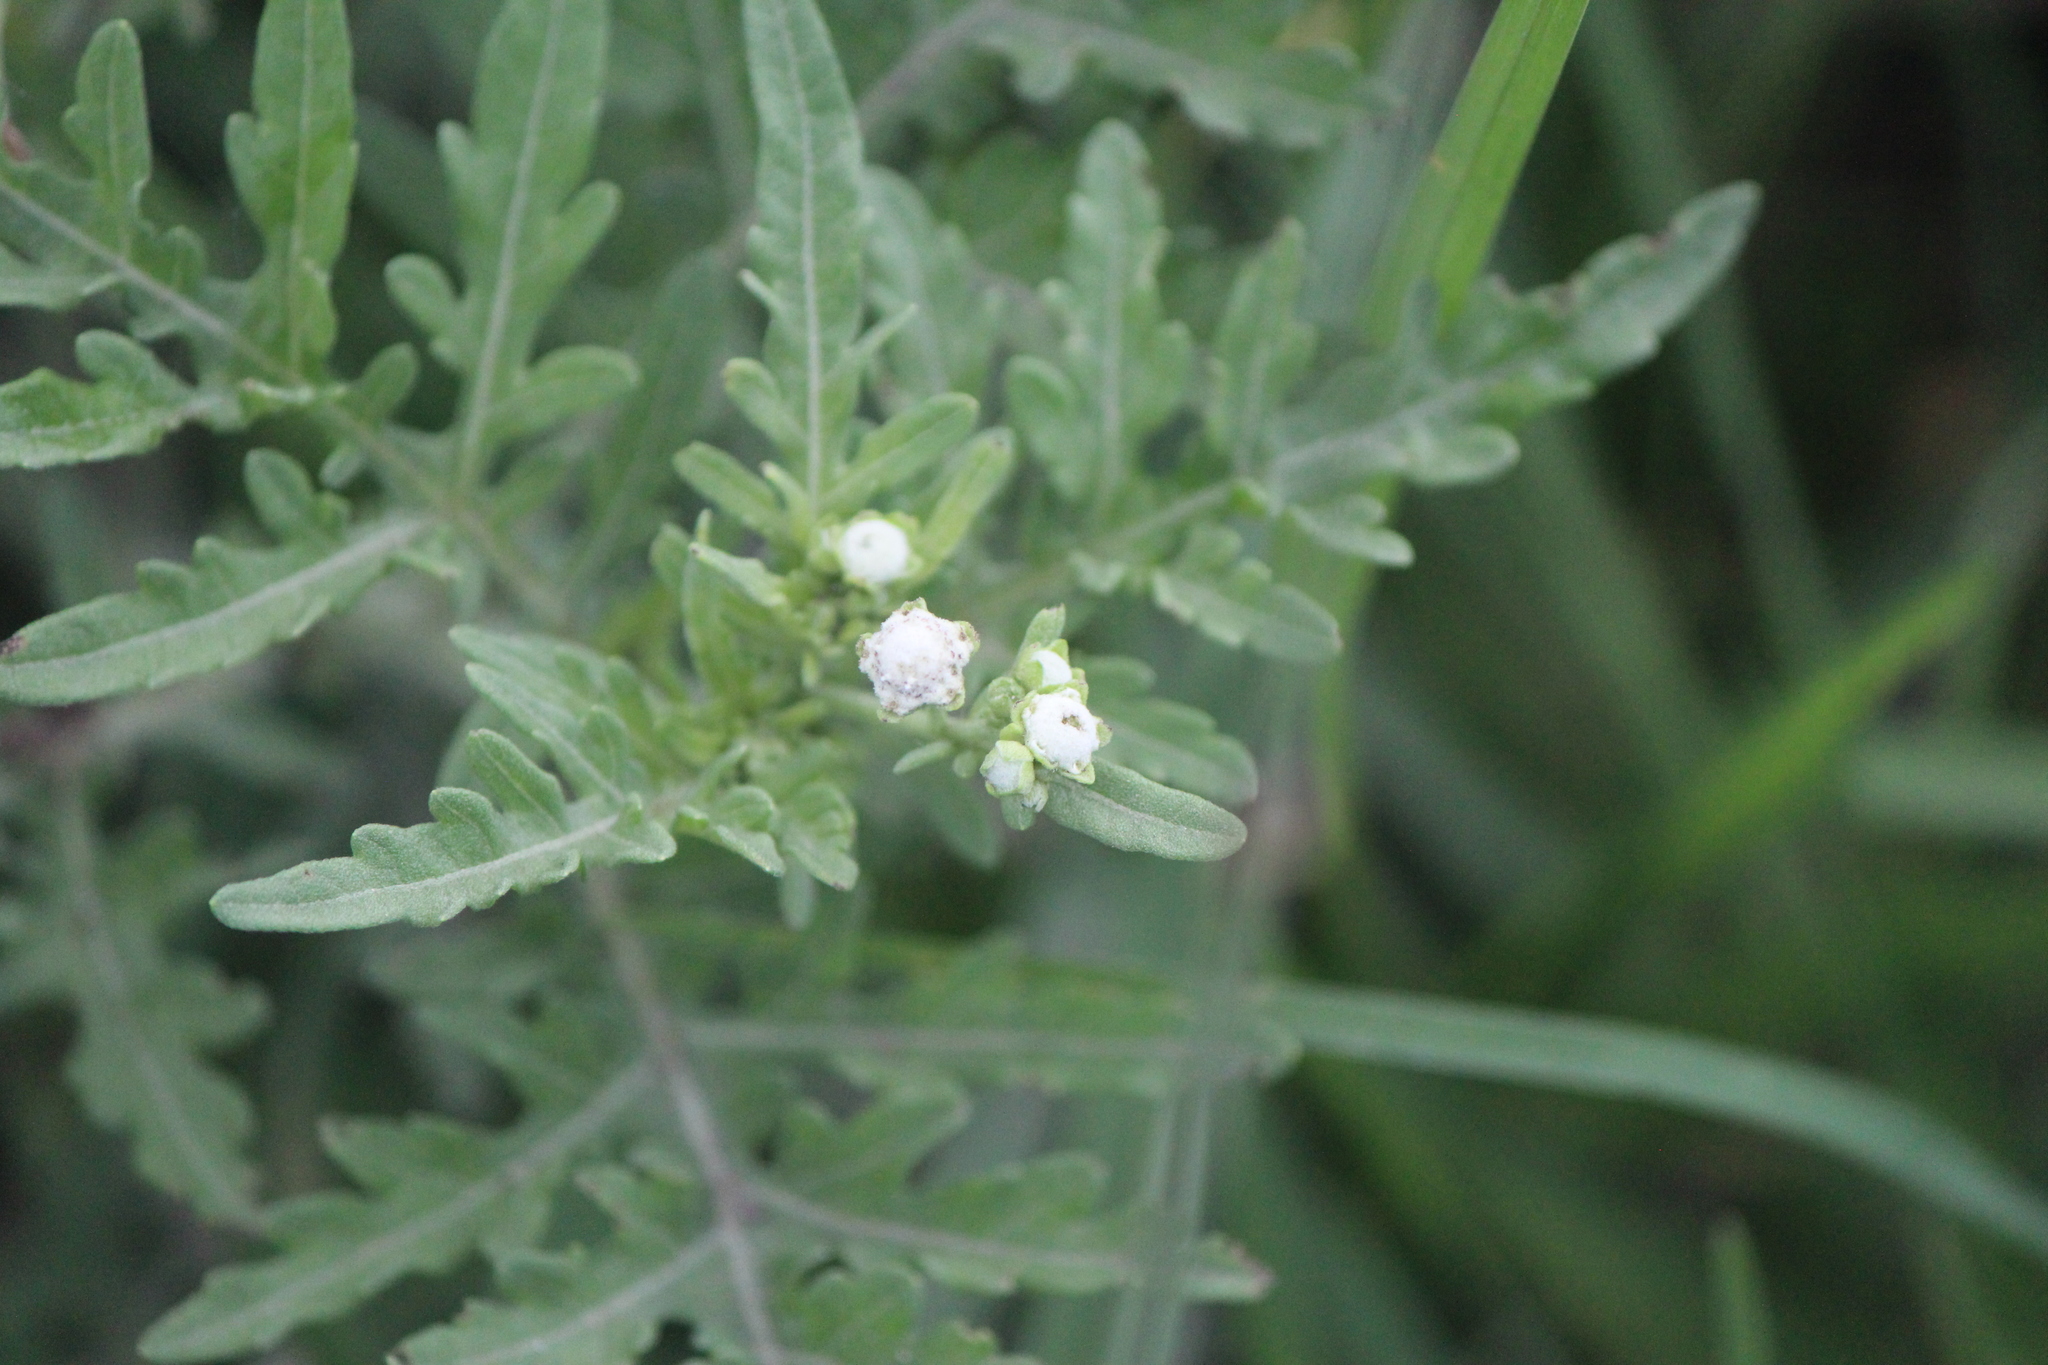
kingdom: Plantae
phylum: Tracheophyta
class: Magnoliopsida
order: Asterales
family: Asteraceae
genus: Parthenium
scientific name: Parthenium bipinnatifidum
